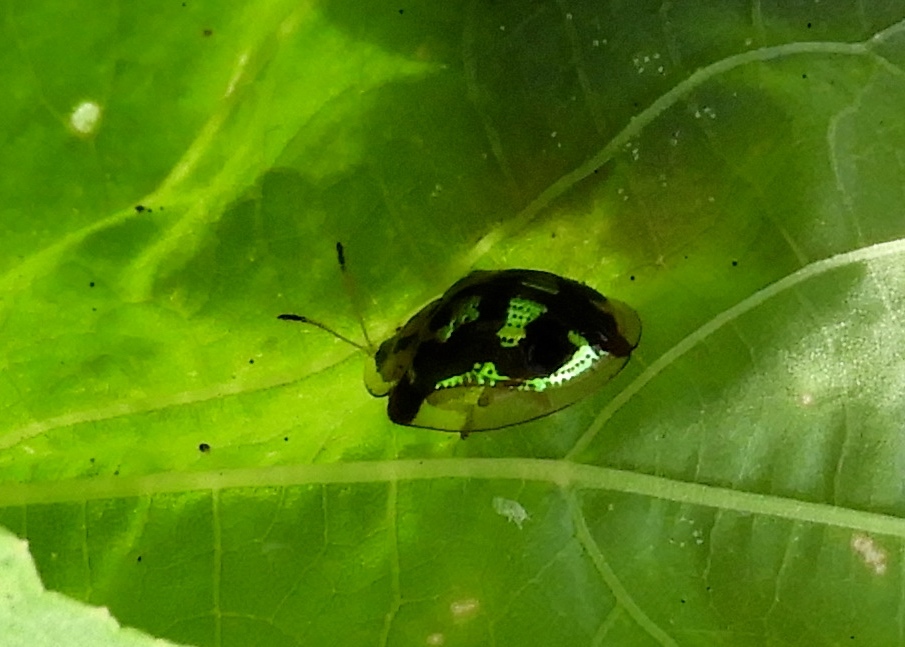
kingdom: Animalia
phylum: Arthropoda
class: Insecta
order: Coleoptera
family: Chrysomelidae
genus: Deloyala
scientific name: Deloyala lecontei
